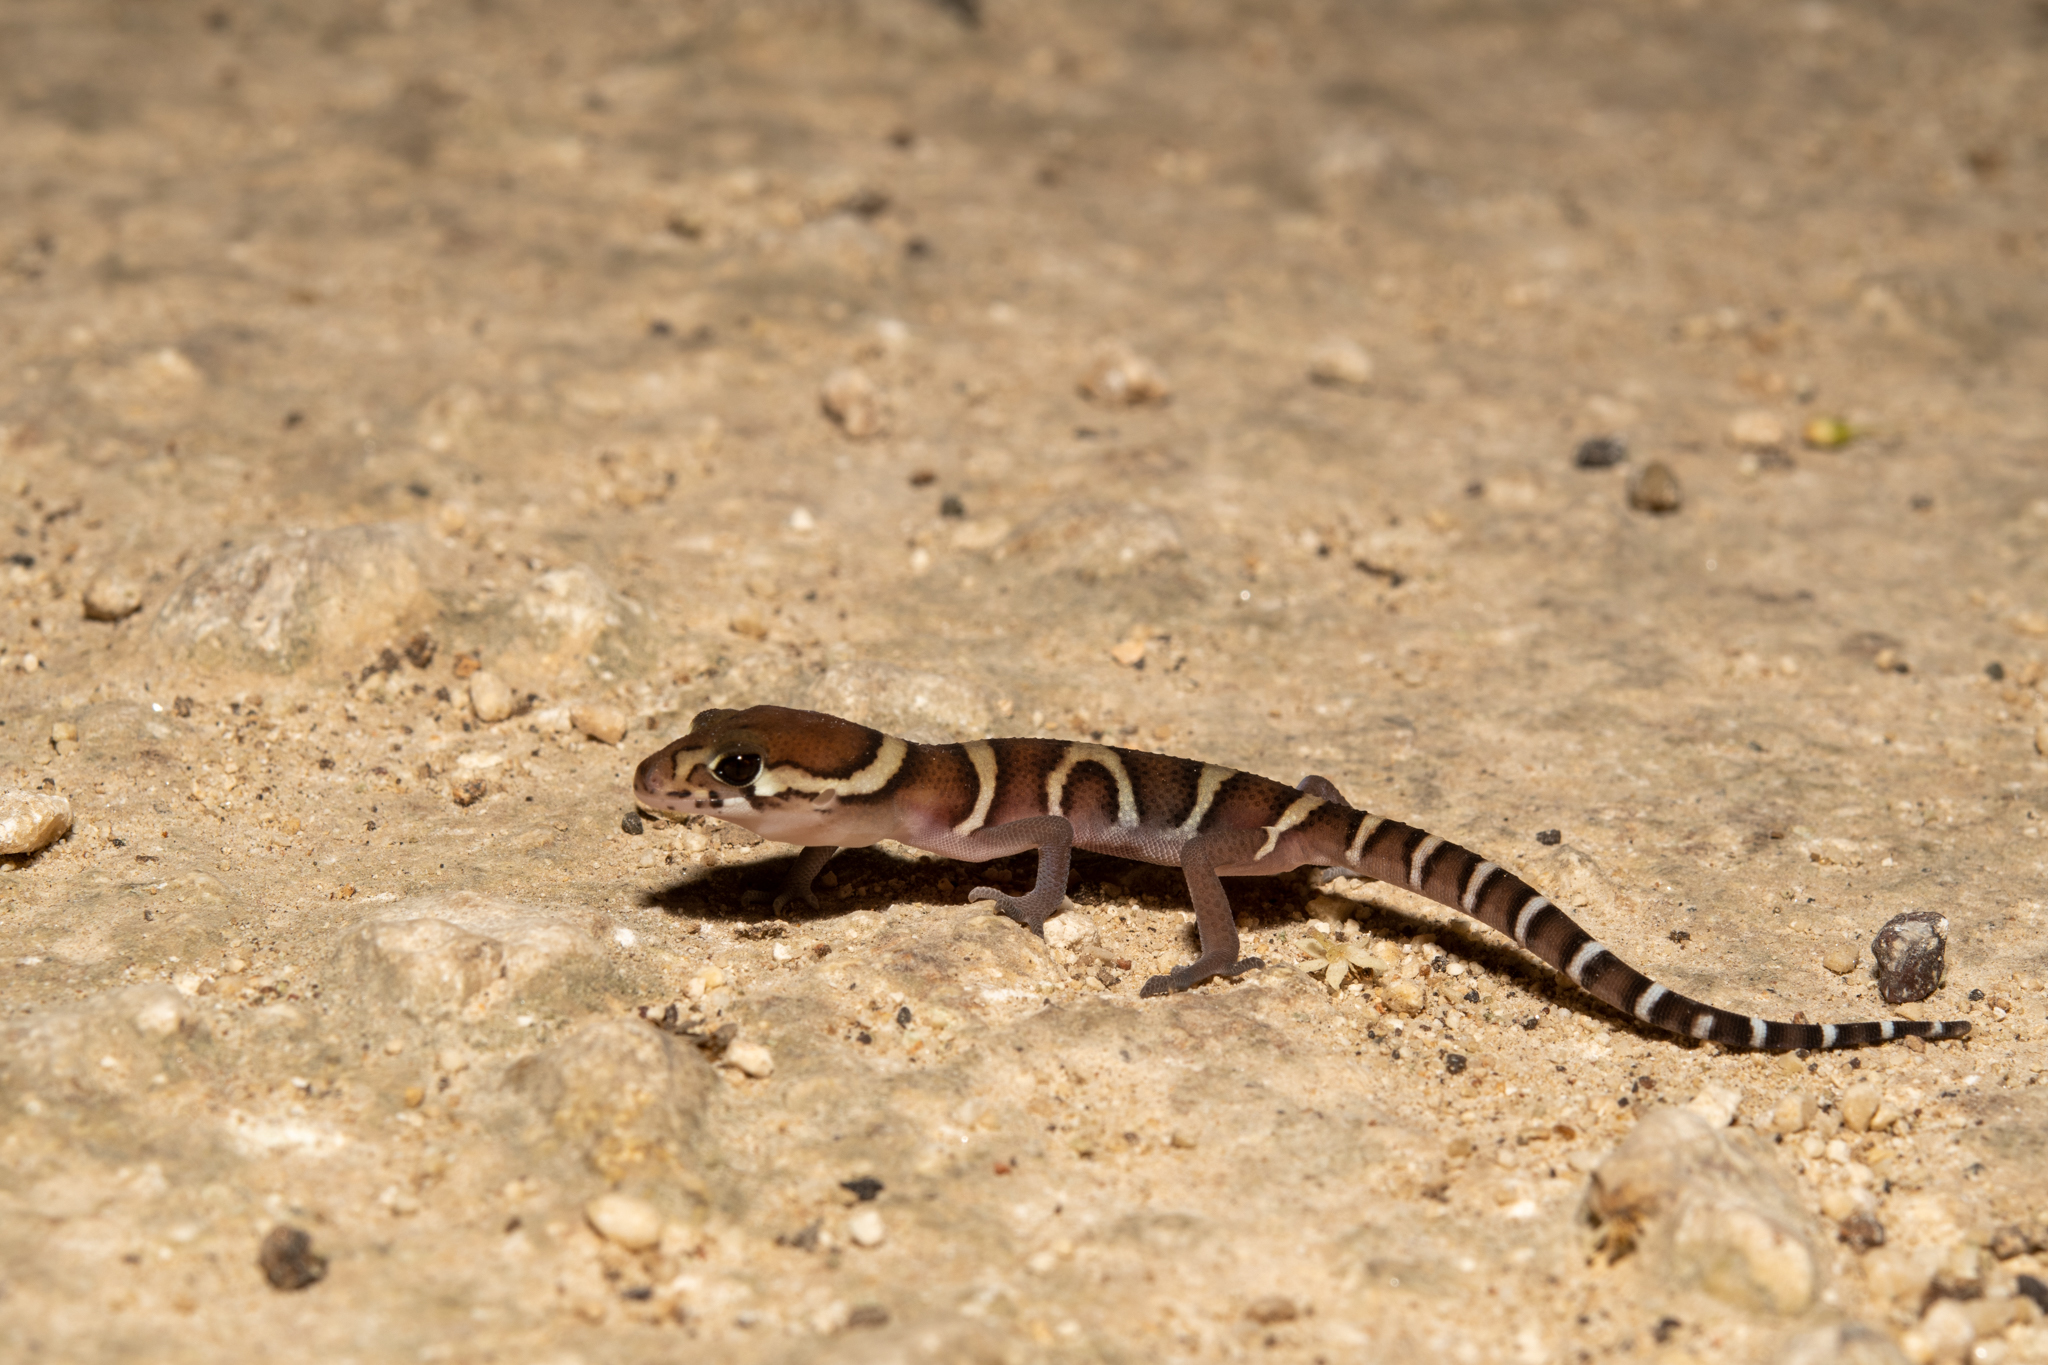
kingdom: Animalia
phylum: Chordata
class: Squamata
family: Eublepharidae
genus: Coleonyx
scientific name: Coleonyx mitratus
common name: Central american banded gecko
